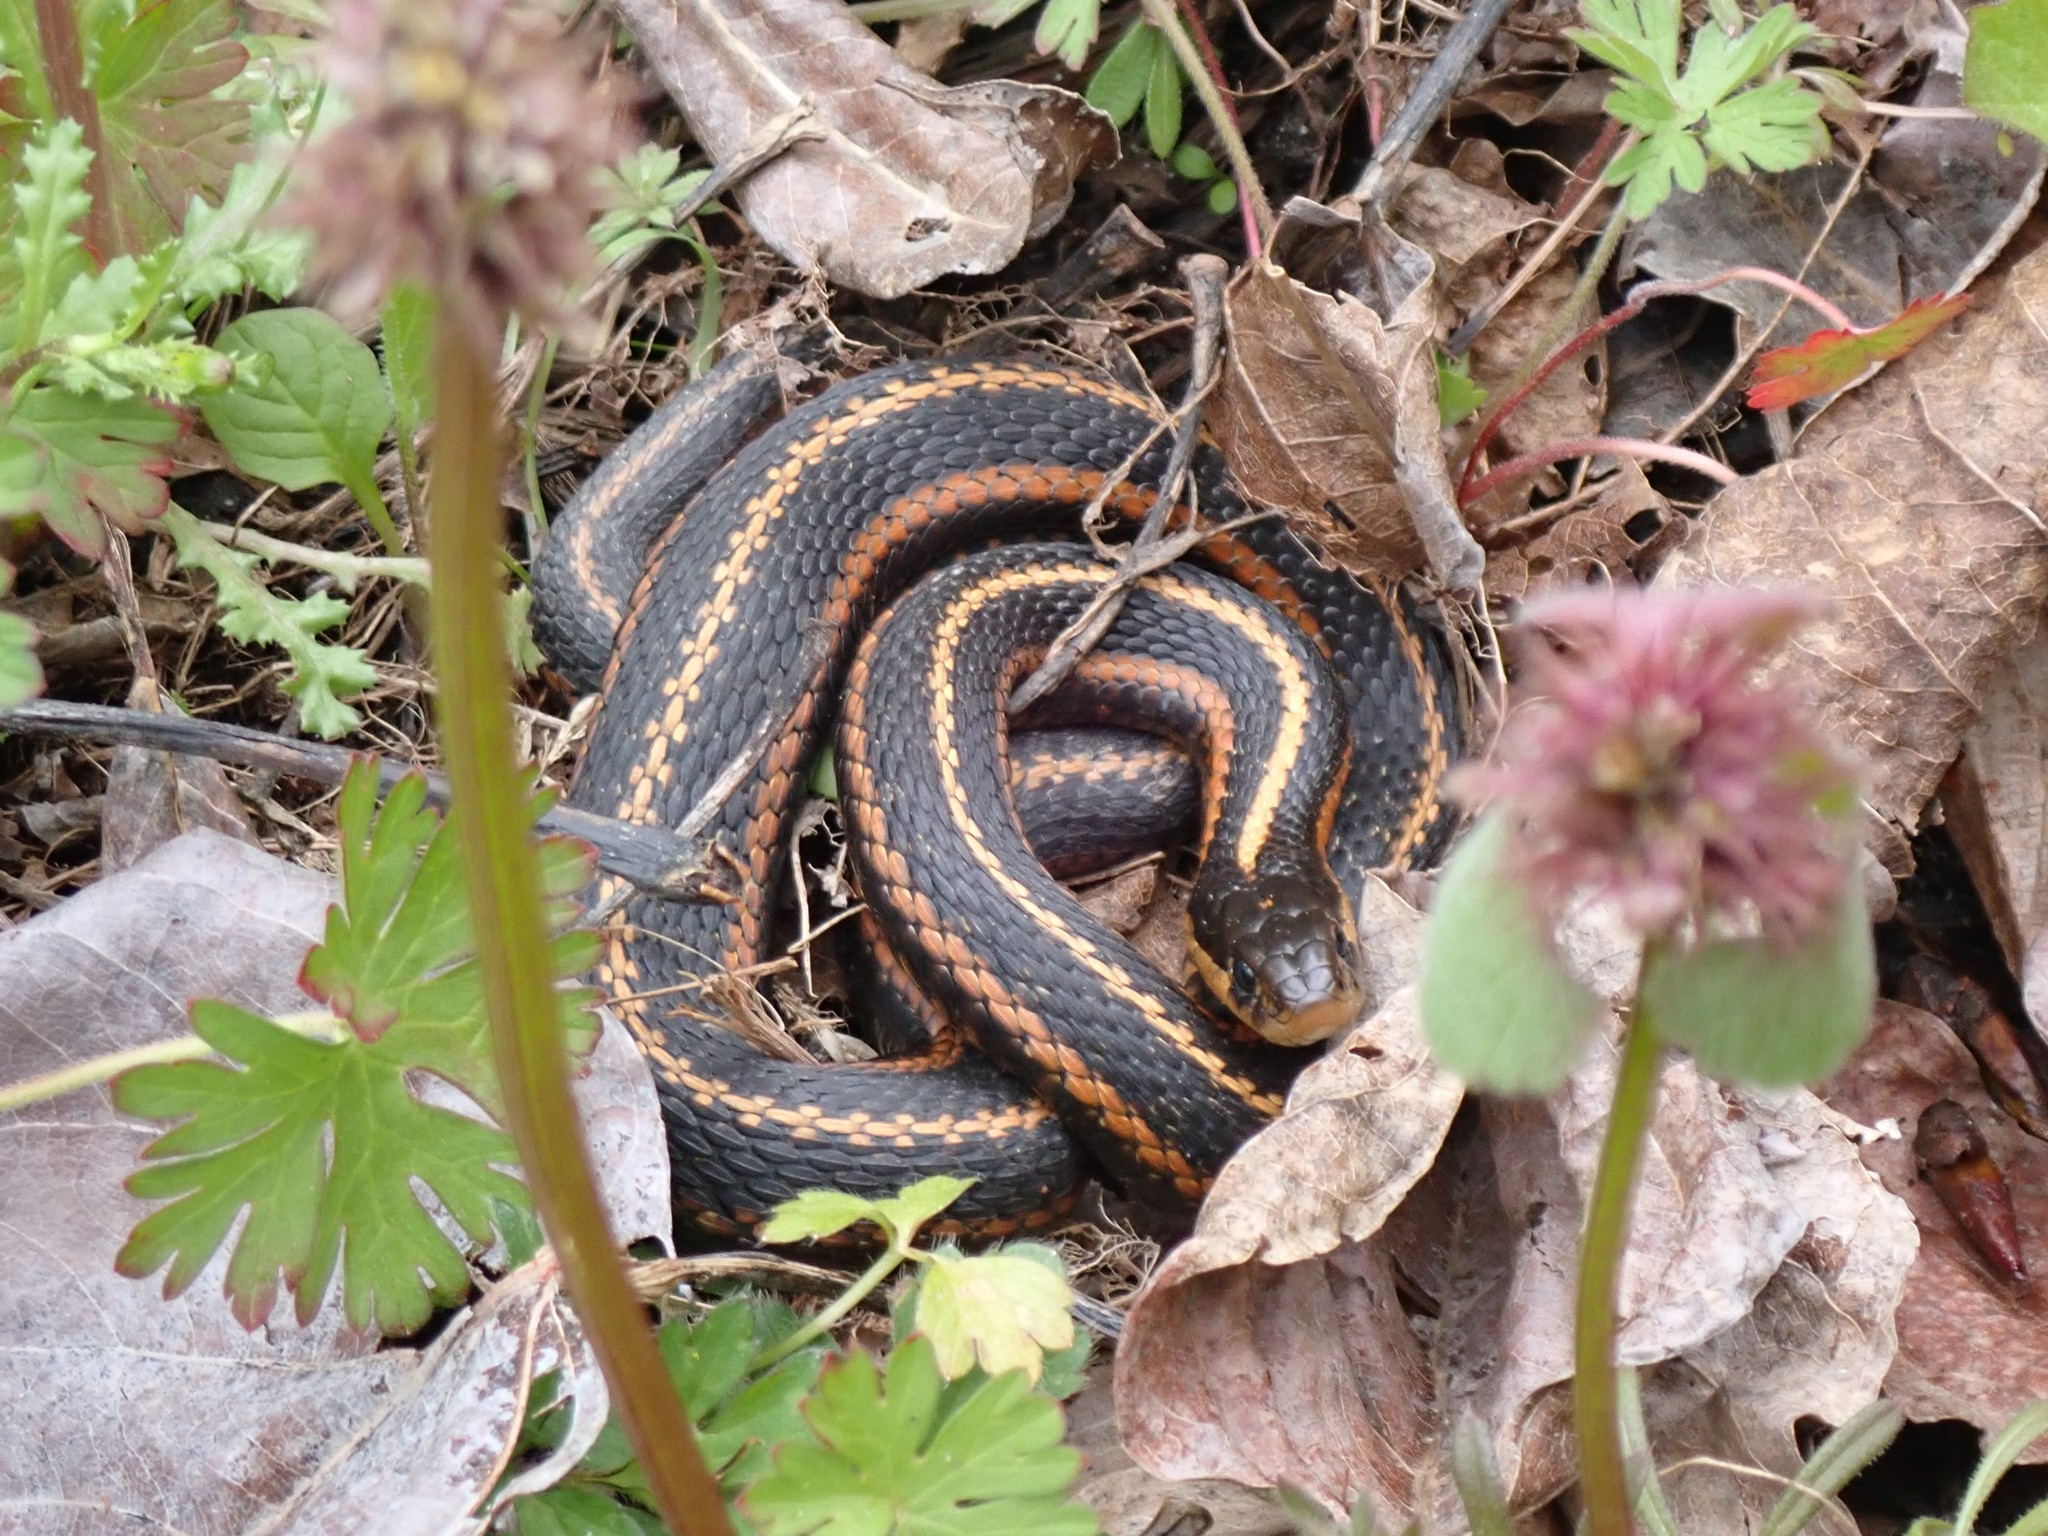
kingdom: Animalia
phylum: Chordata
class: Squamata
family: Colubridae
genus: Thamnophis
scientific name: Thamnophis ordinoides
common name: Northwestern garter snake
